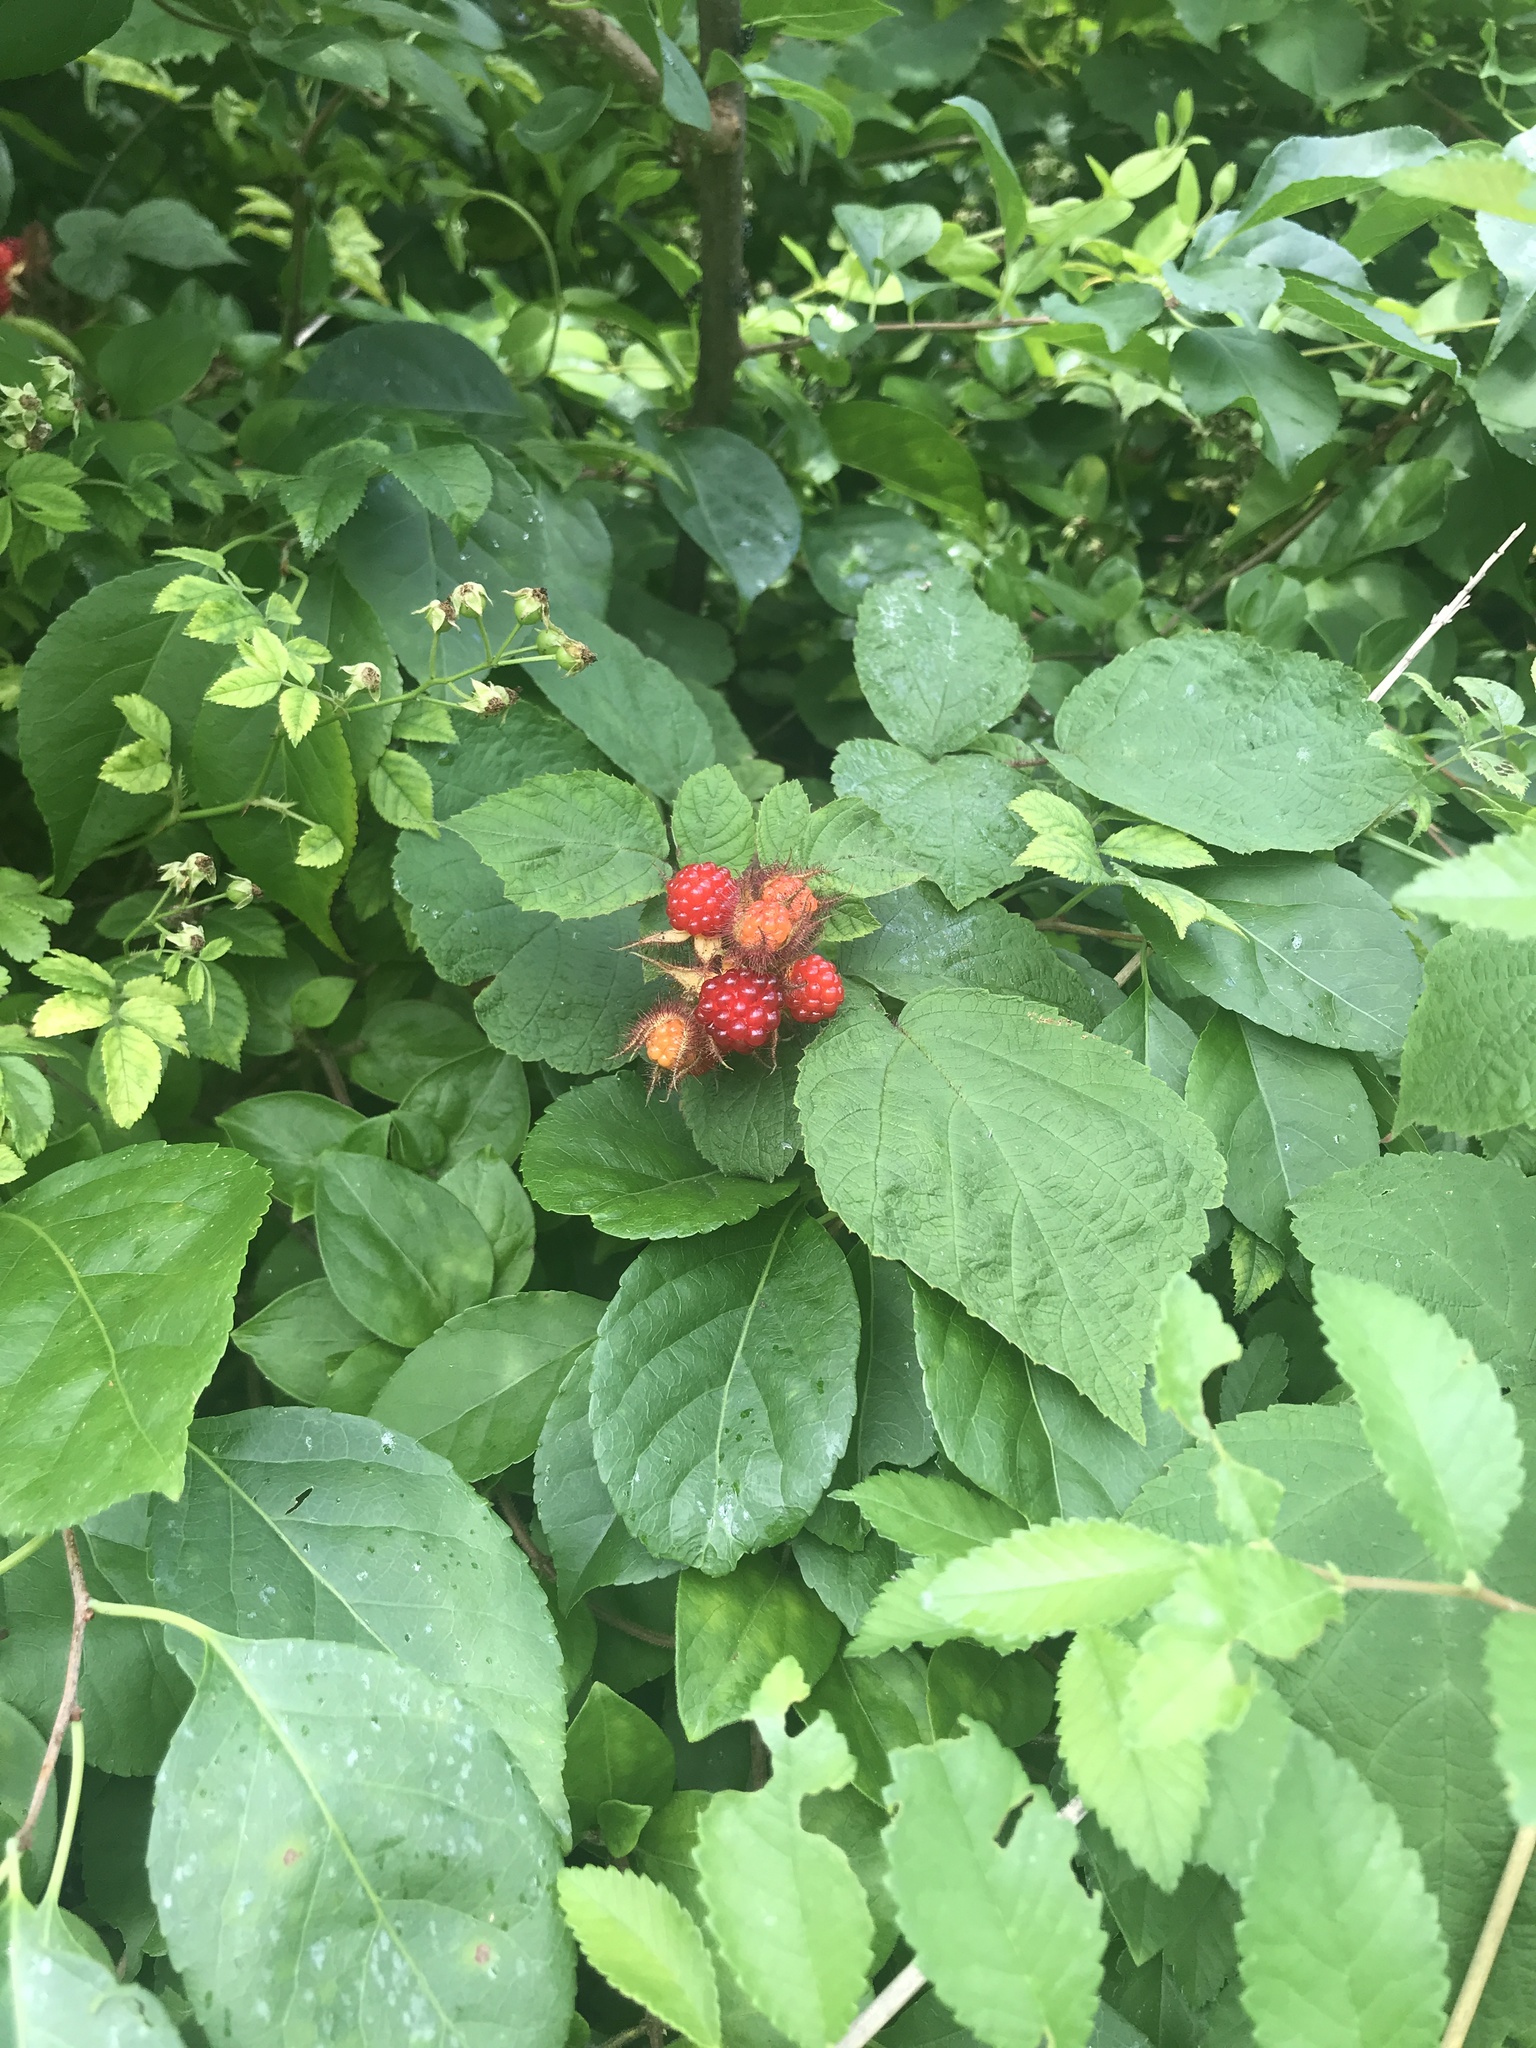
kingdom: Plantae
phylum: Tracheophyta
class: Magnoliopsida
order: Rosales
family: Rosaceae
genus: Rubus
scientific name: Rubus phoenicolasius
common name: Japanese wineberry
